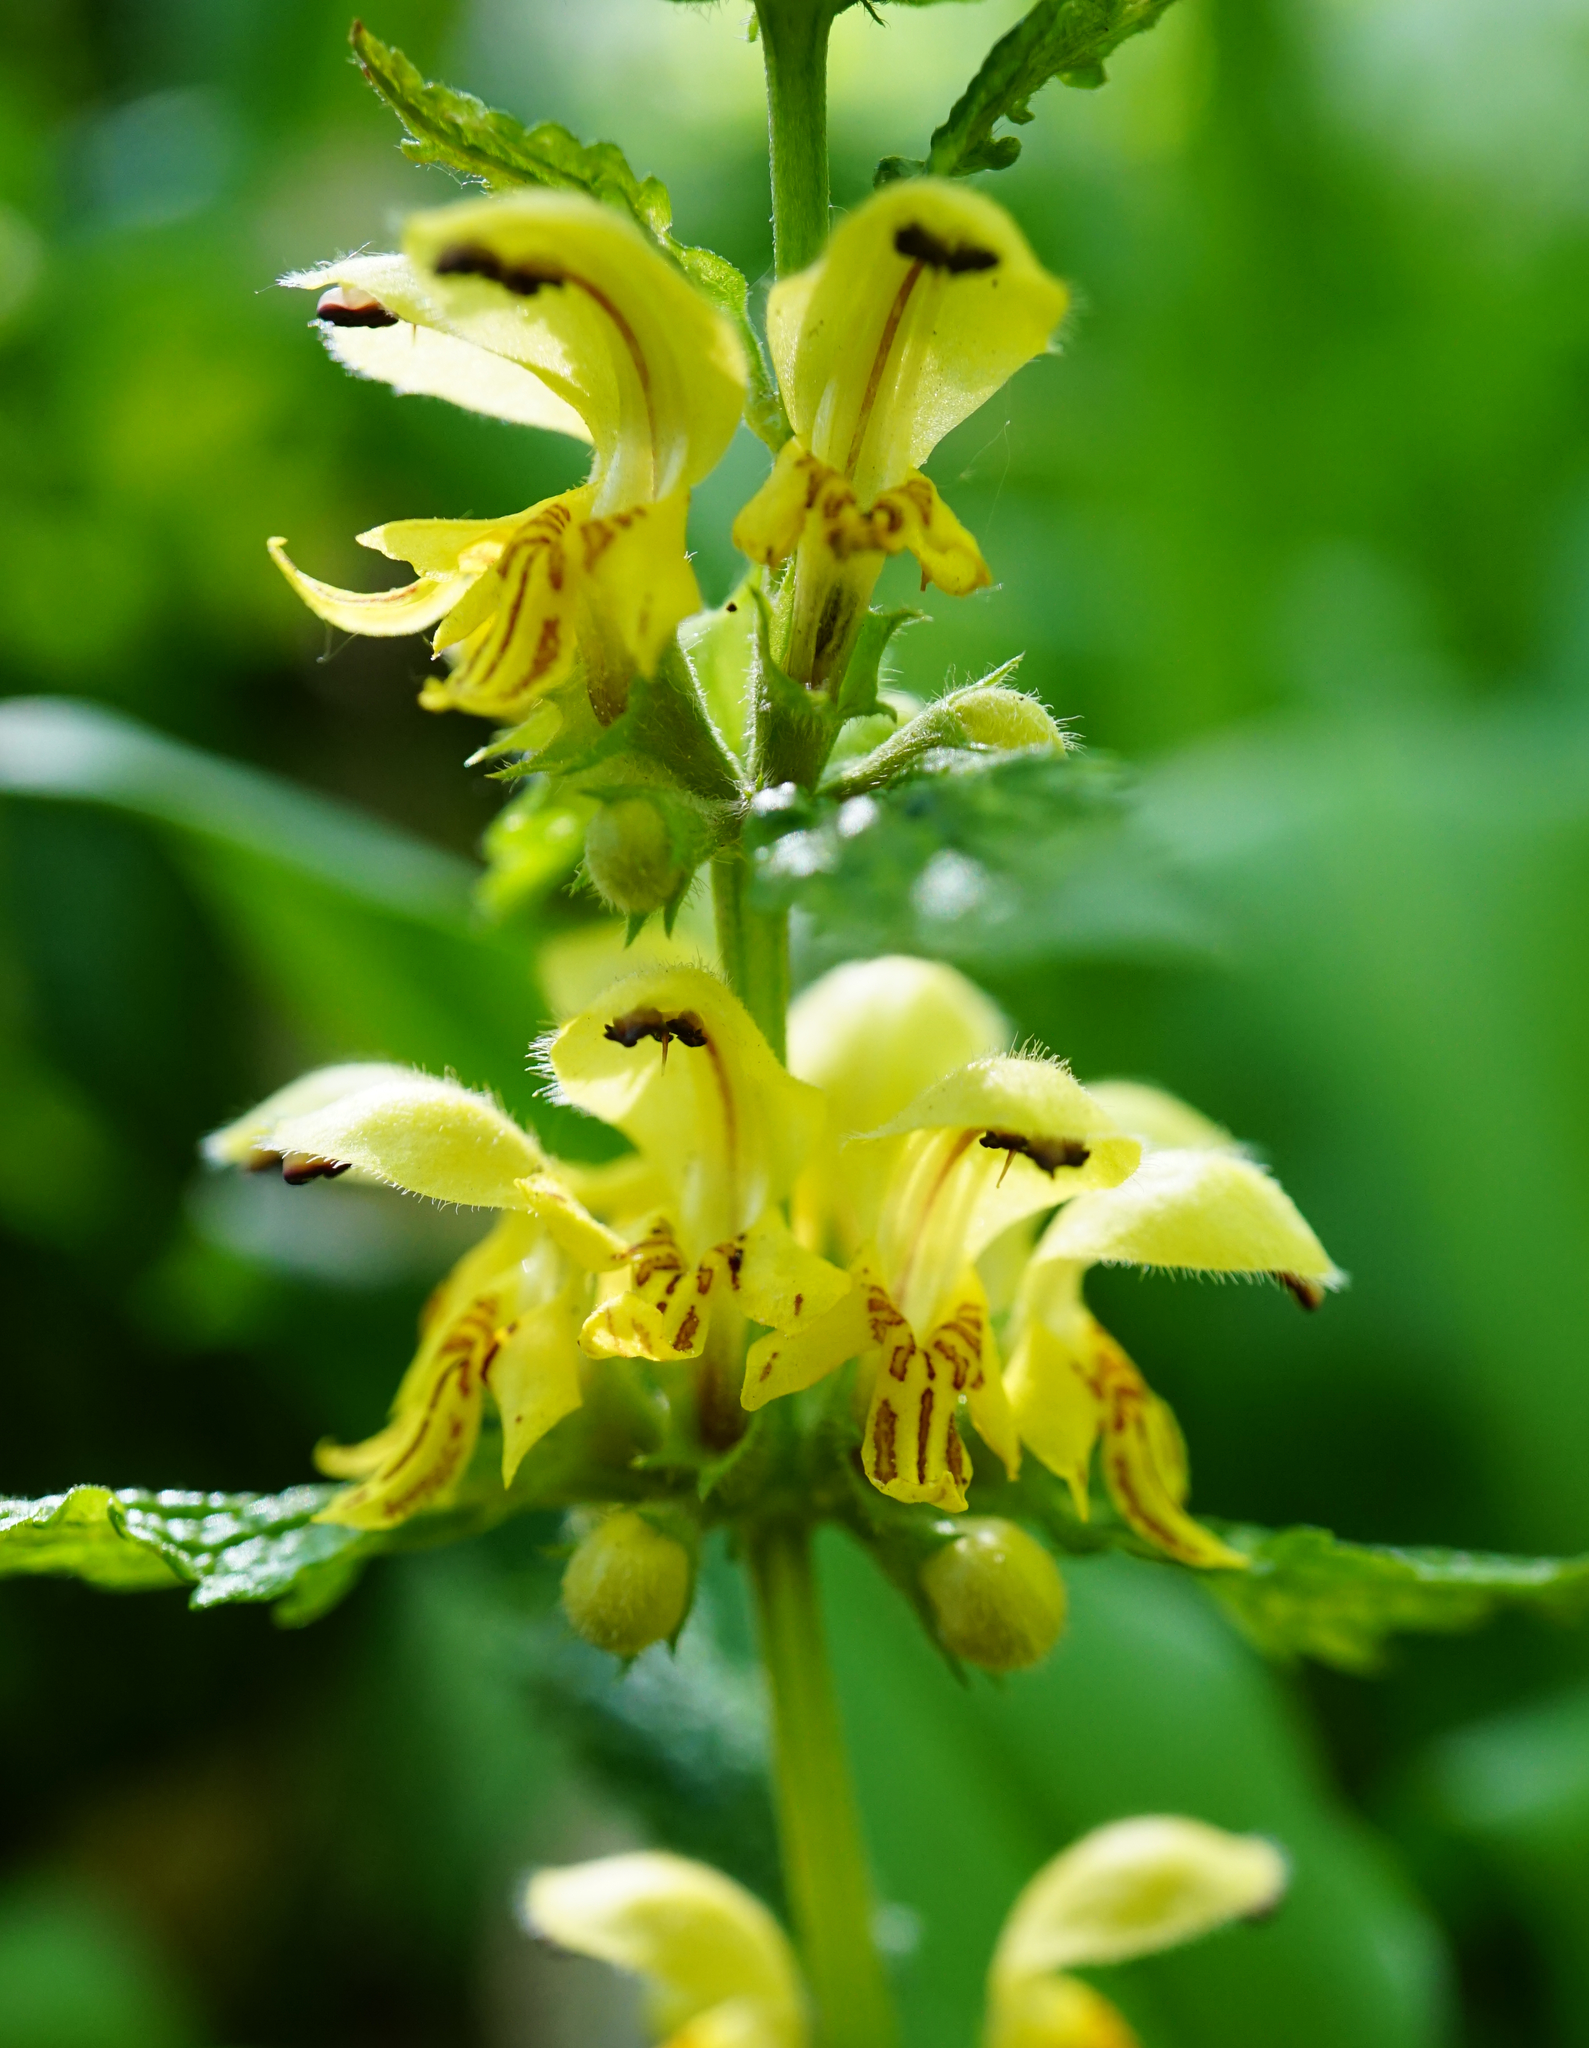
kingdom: Plantae
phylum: Tracheophyta
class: Magnoliopsida
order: Lamiales
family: Lamiaceae
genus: Lamium
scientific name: Lamium galeobdolon
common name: Yellow archangel
